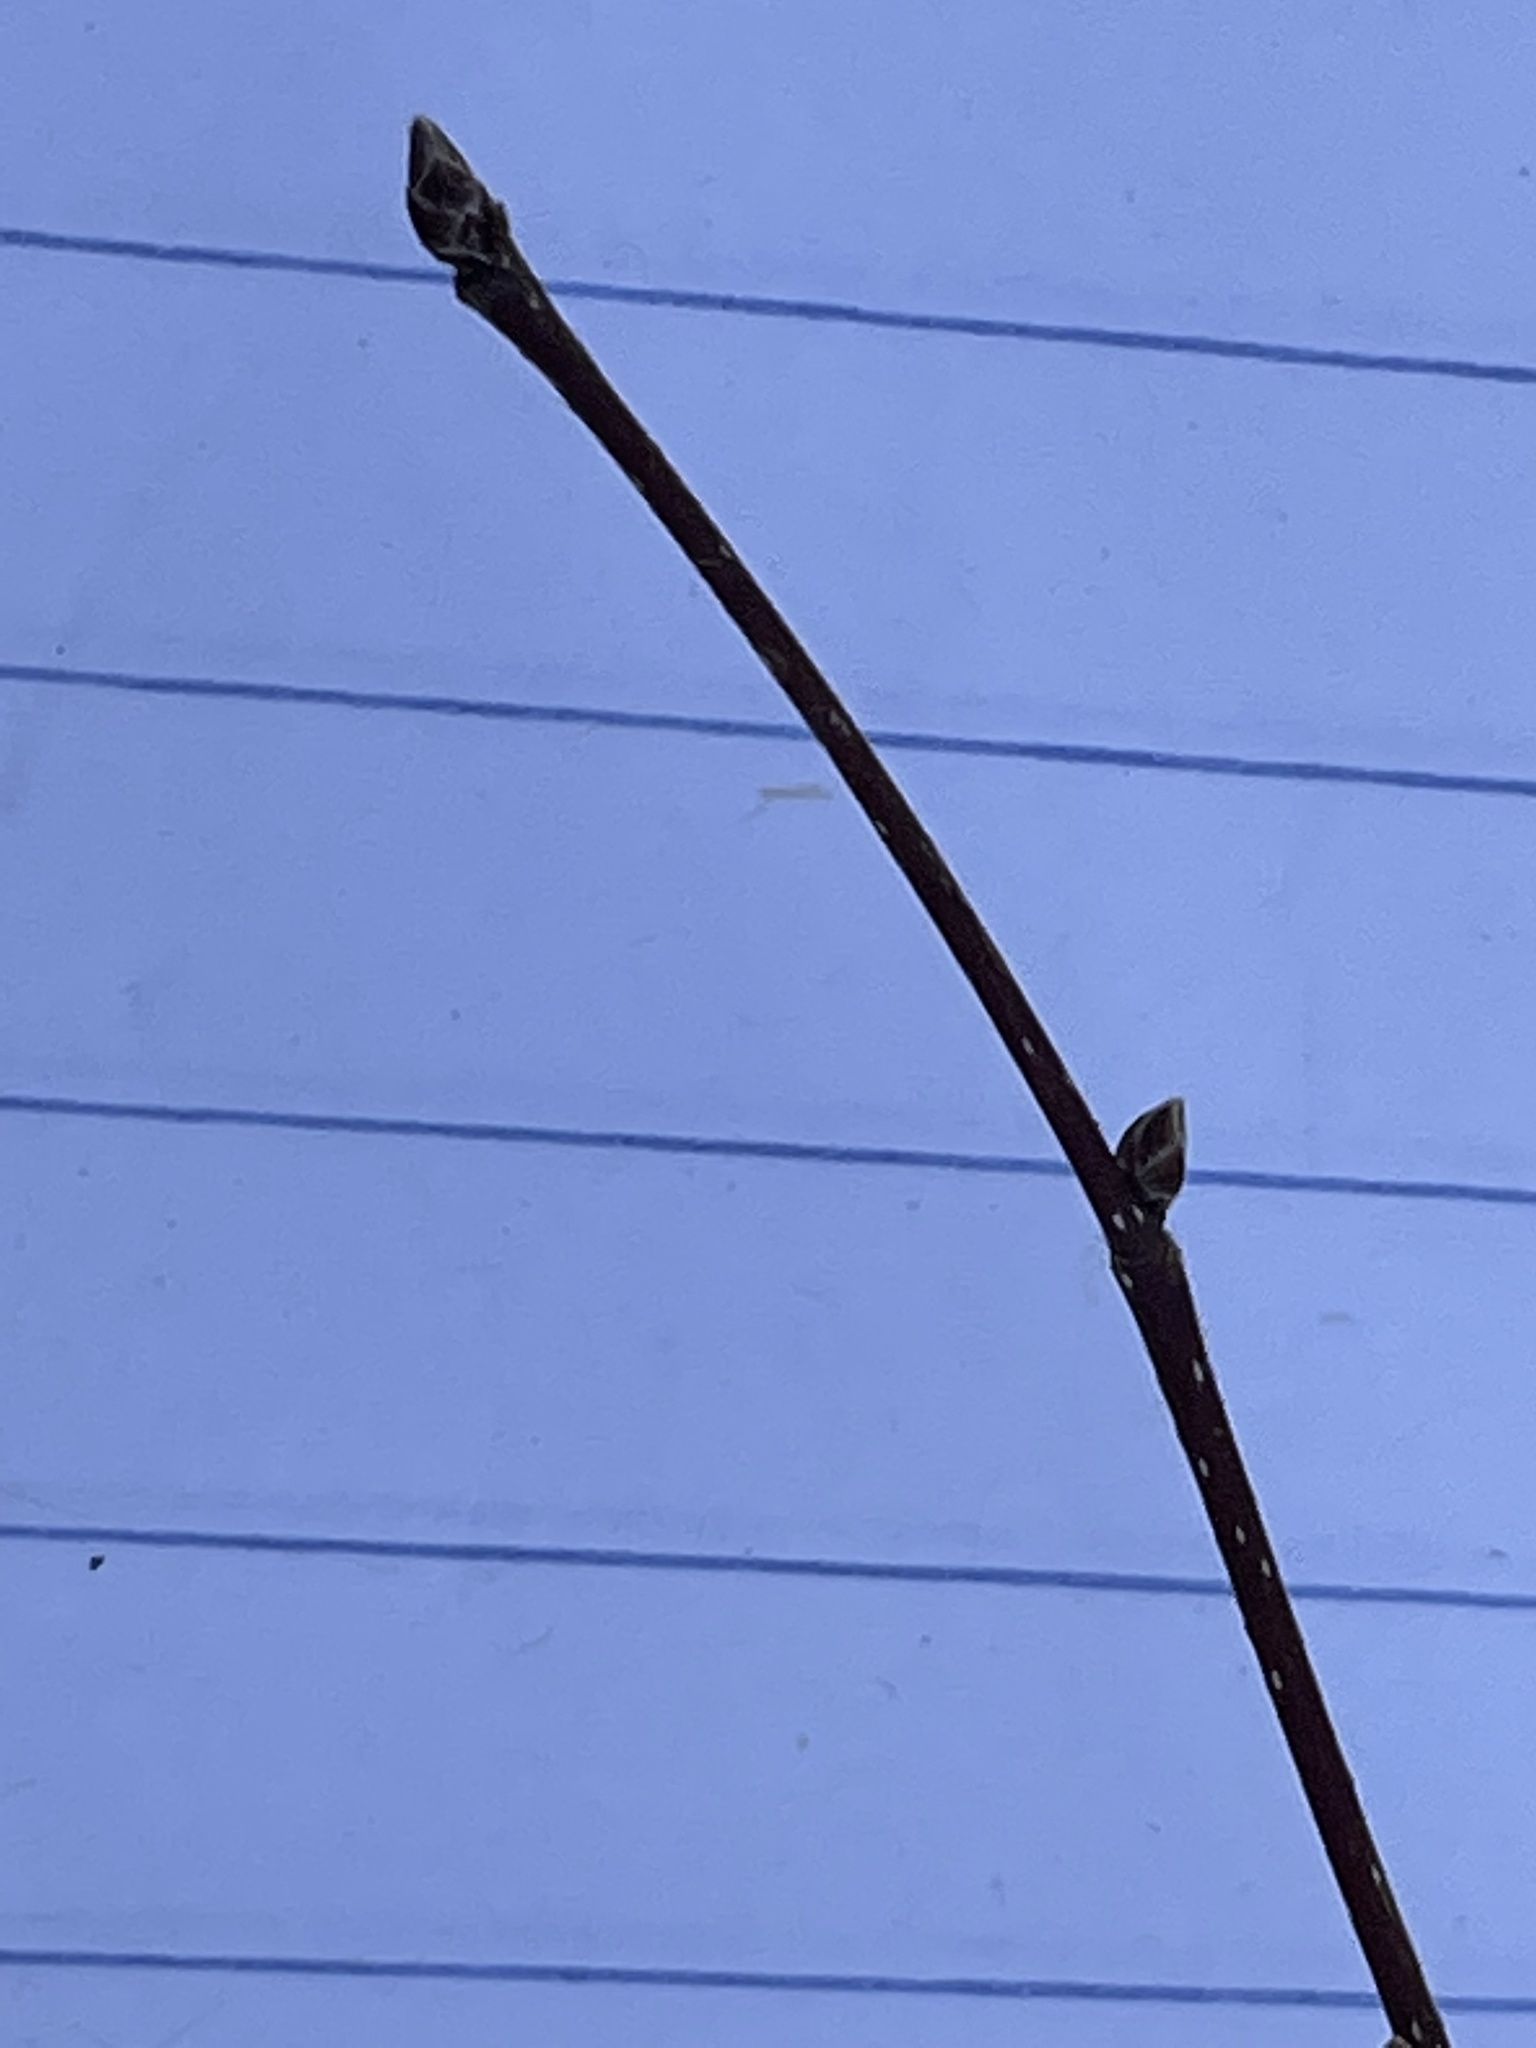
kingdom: Plantae
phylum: Tracheophyta
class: Magnoliopsida
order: Fagales
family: Betulaceae
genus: Carpinus
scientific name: Carpinus caroliniana
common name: American hornbeam
